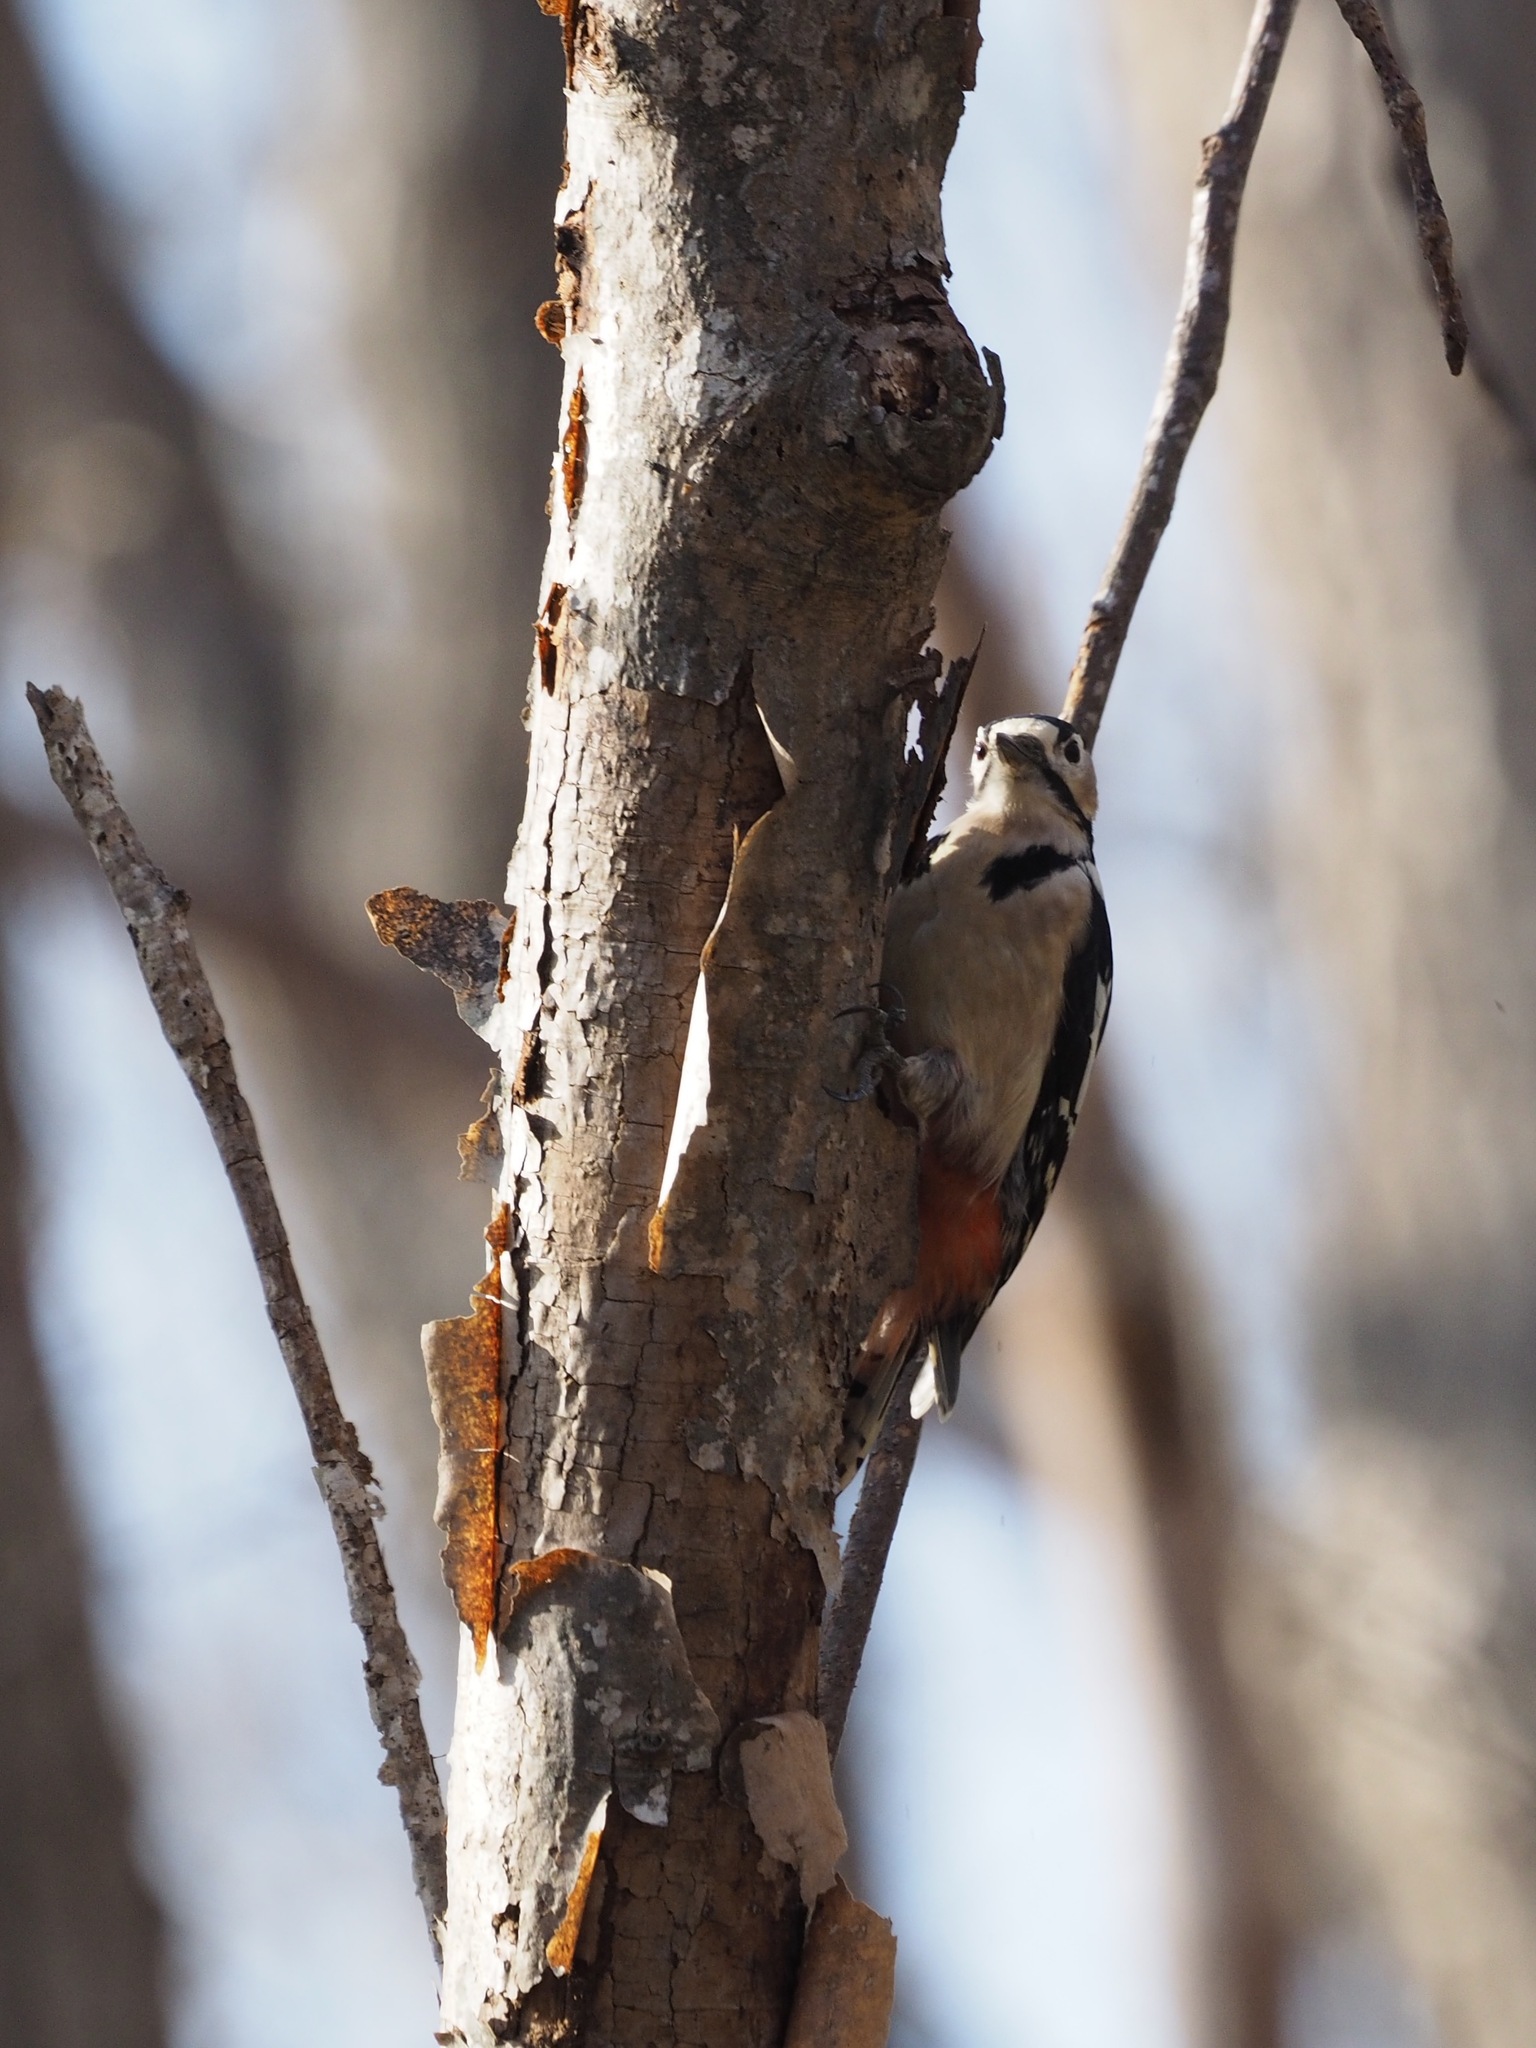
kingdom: Animalia
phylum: Chordata
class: Aves
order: Piciformes
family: Picidae
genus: Dendrocopos
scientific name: Dendrocopos major
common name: Great spotted woodpecker
